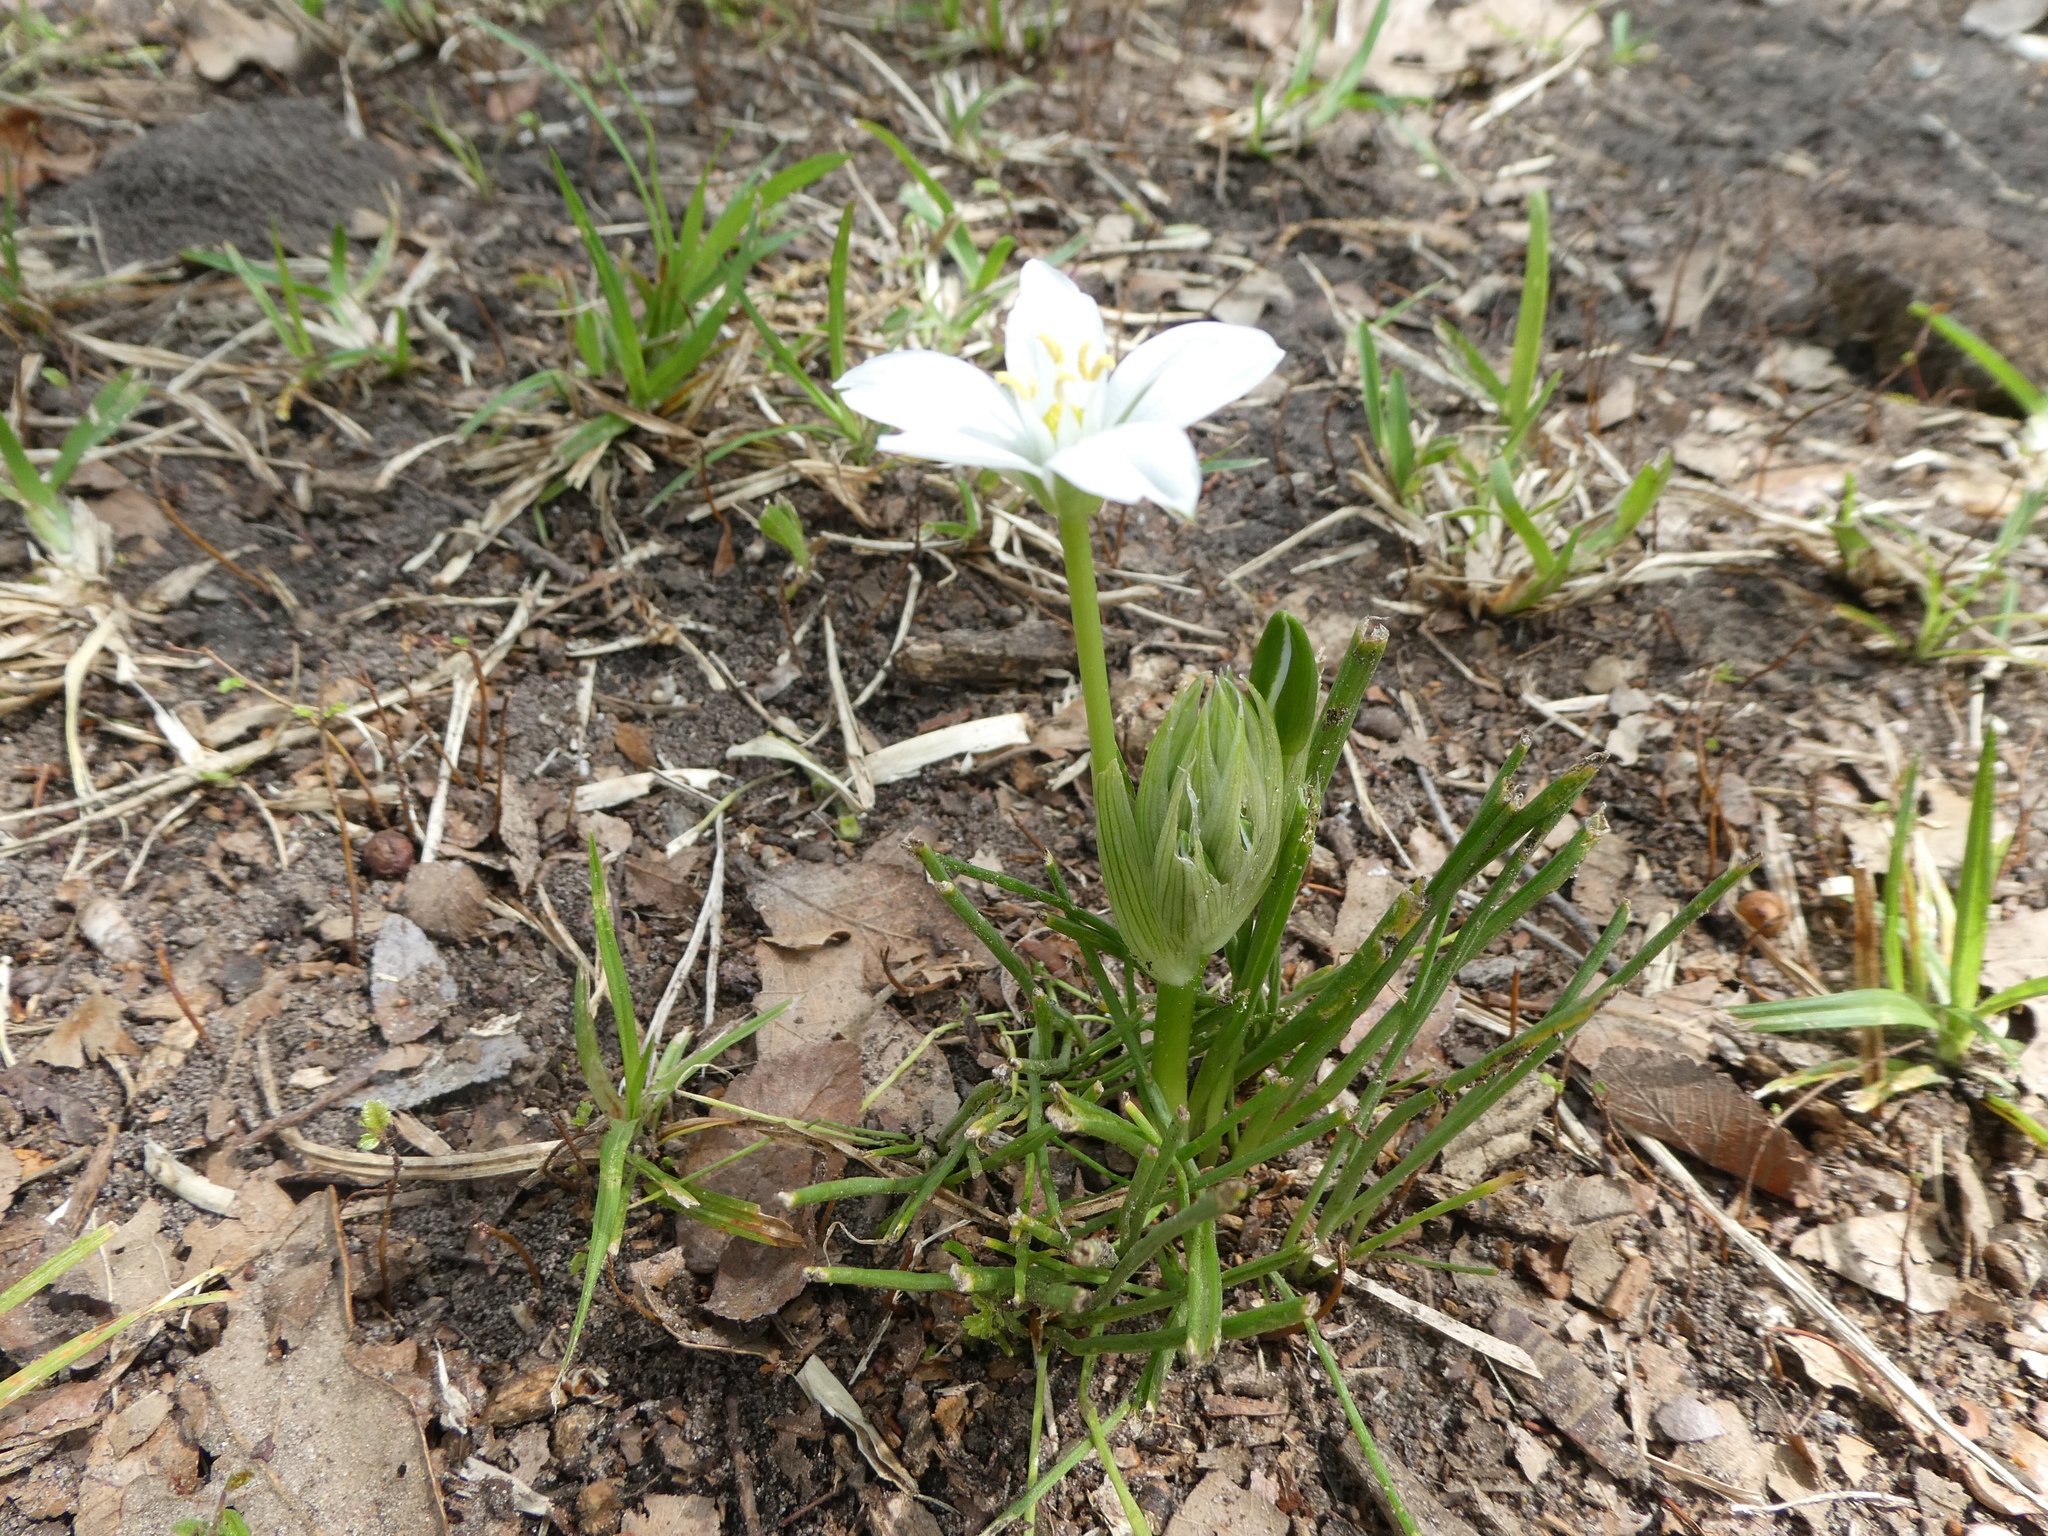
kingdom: Plantae
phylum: Tracheophyta
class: Liliopsida
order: Asparagales
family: Asparagaceae
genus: Ornithogalum
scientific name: Ornithogalum umbellatum
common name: Garden star-of-bethlehem
